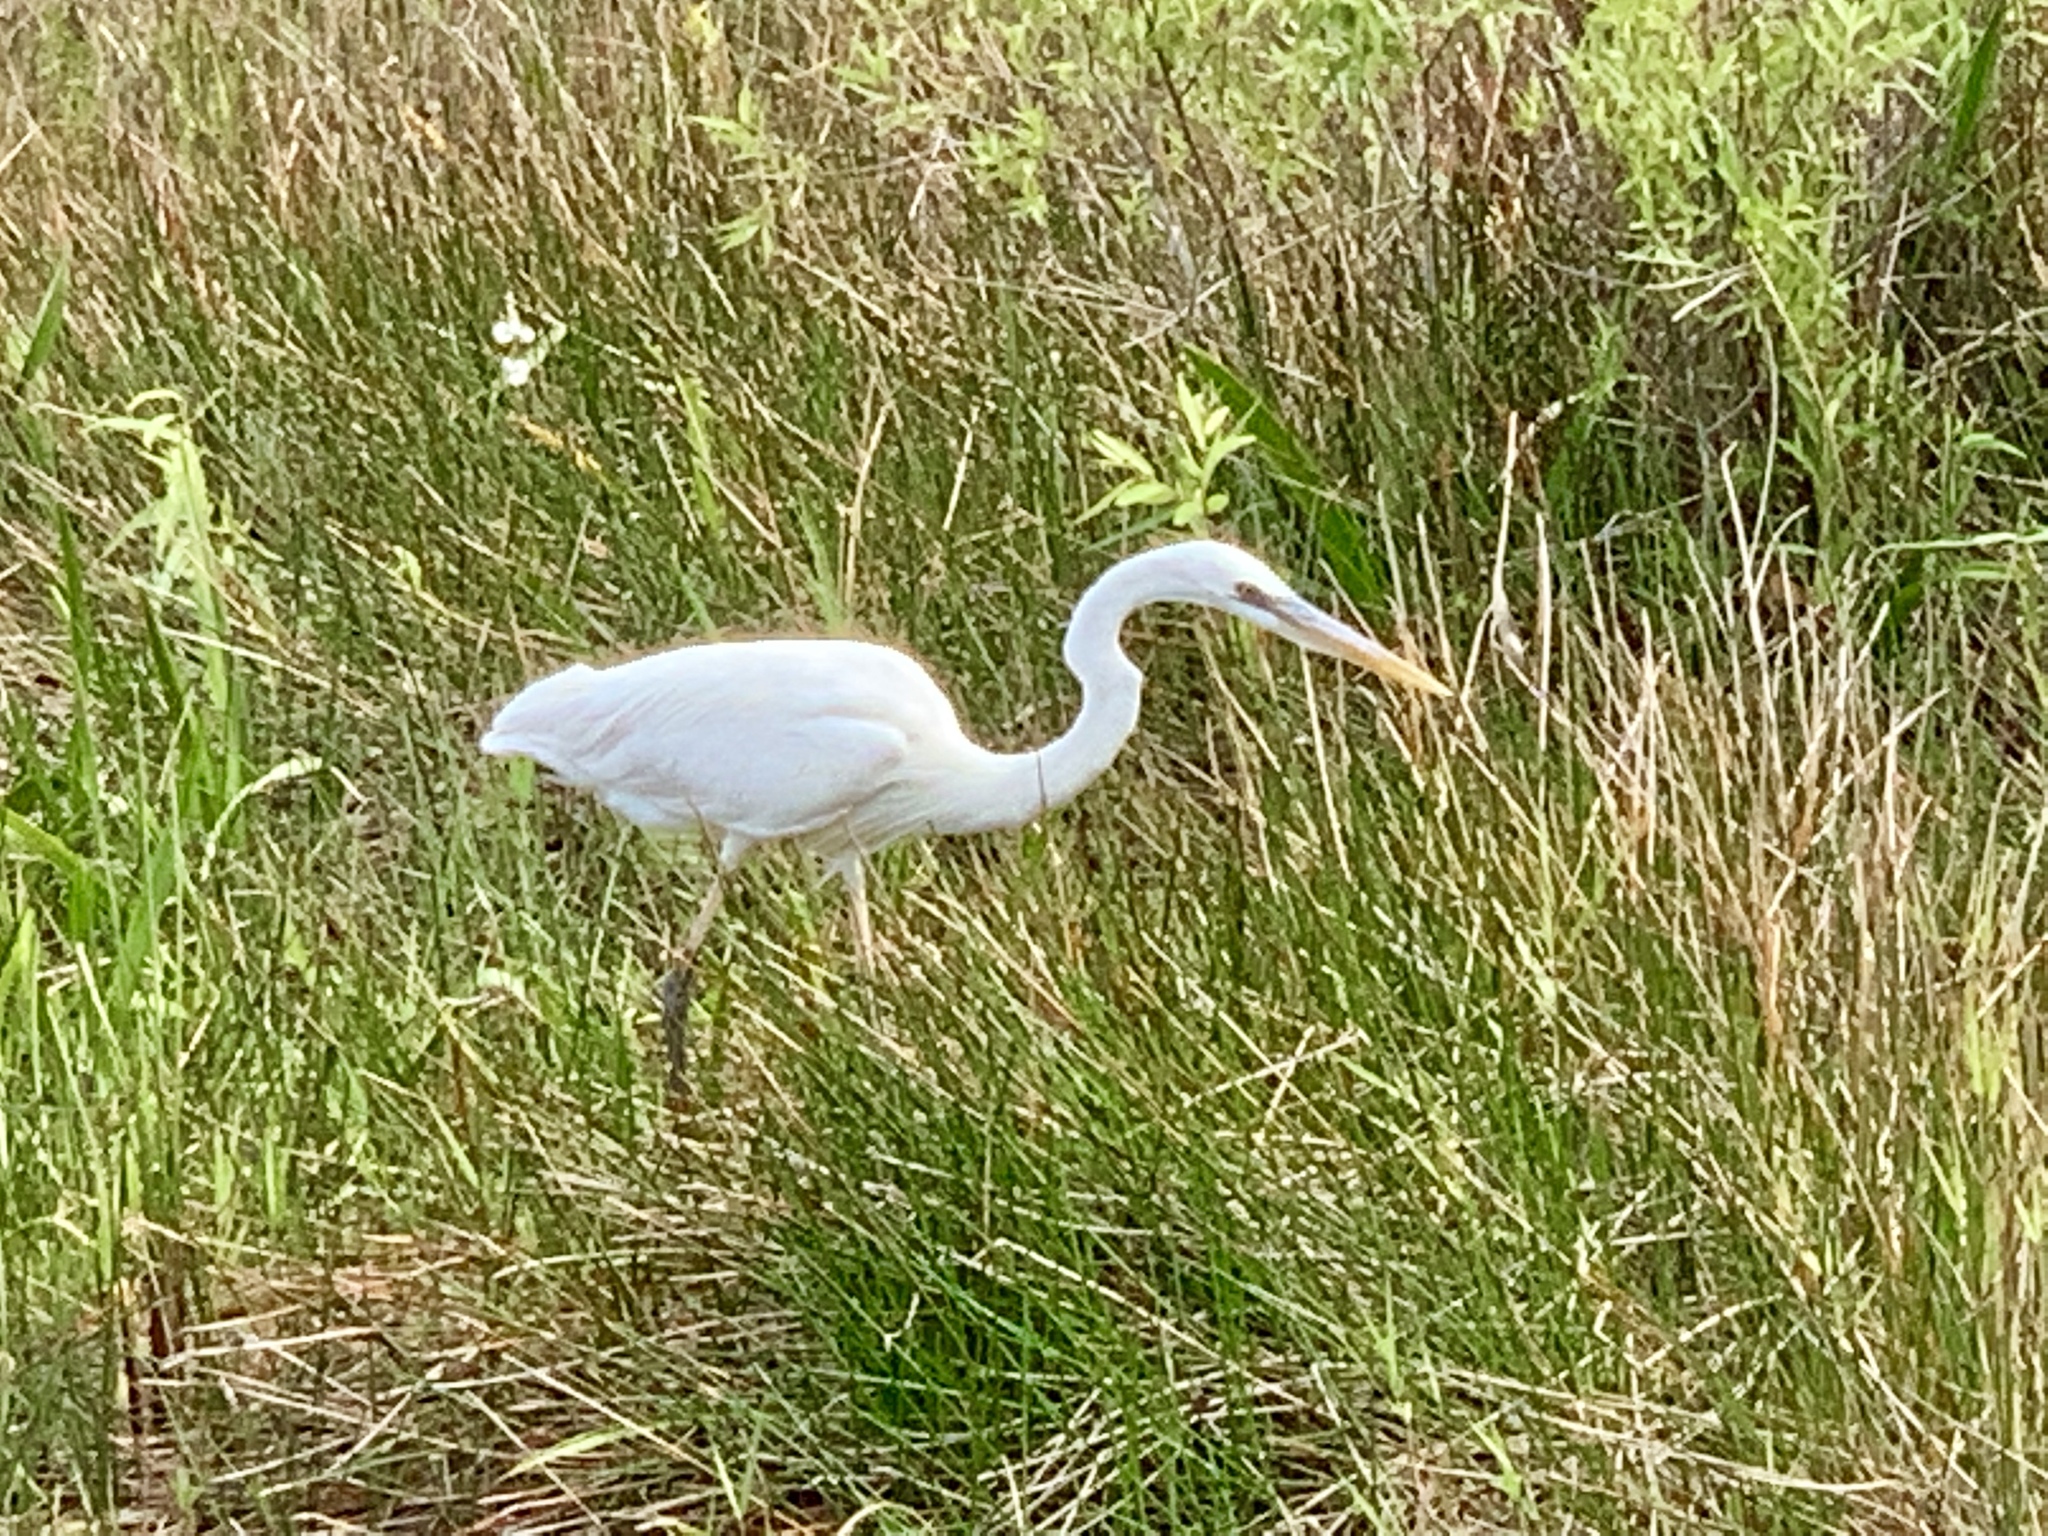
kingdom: Animalia
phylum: Chordata
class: Aves
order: Pelecaniformes
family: Ardeidae
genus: Ardea
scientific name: Ardea herodias
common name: Great blue heron
